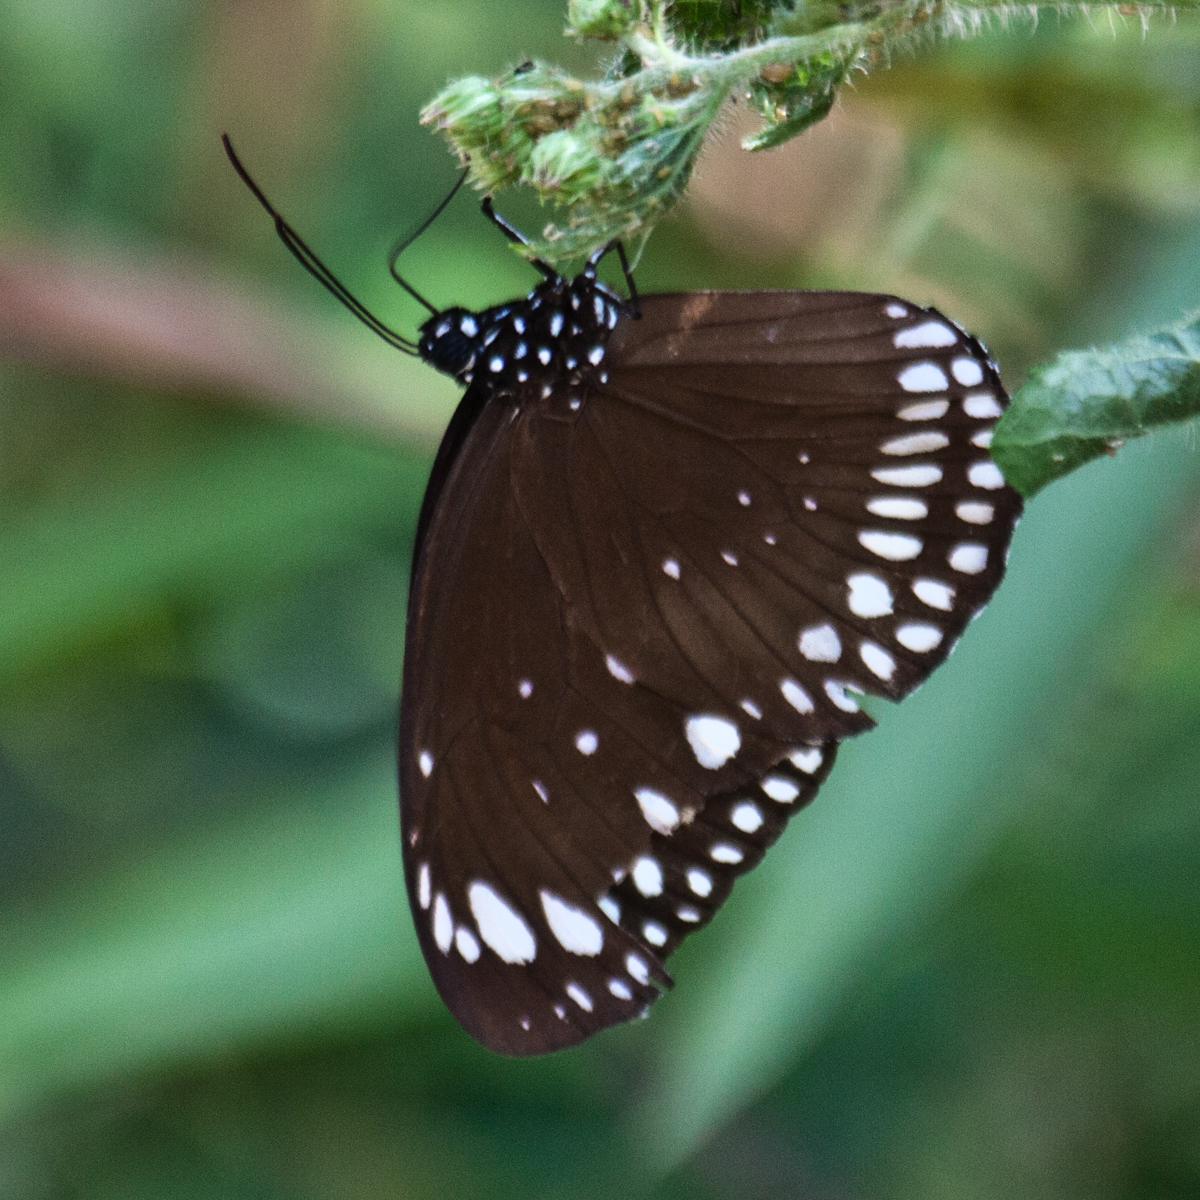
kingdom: Animalia
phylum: Arthropoda
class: Insecta
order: Lepidoptera
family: Nymphalidae
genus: Euploea
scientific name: Euploea crameri
